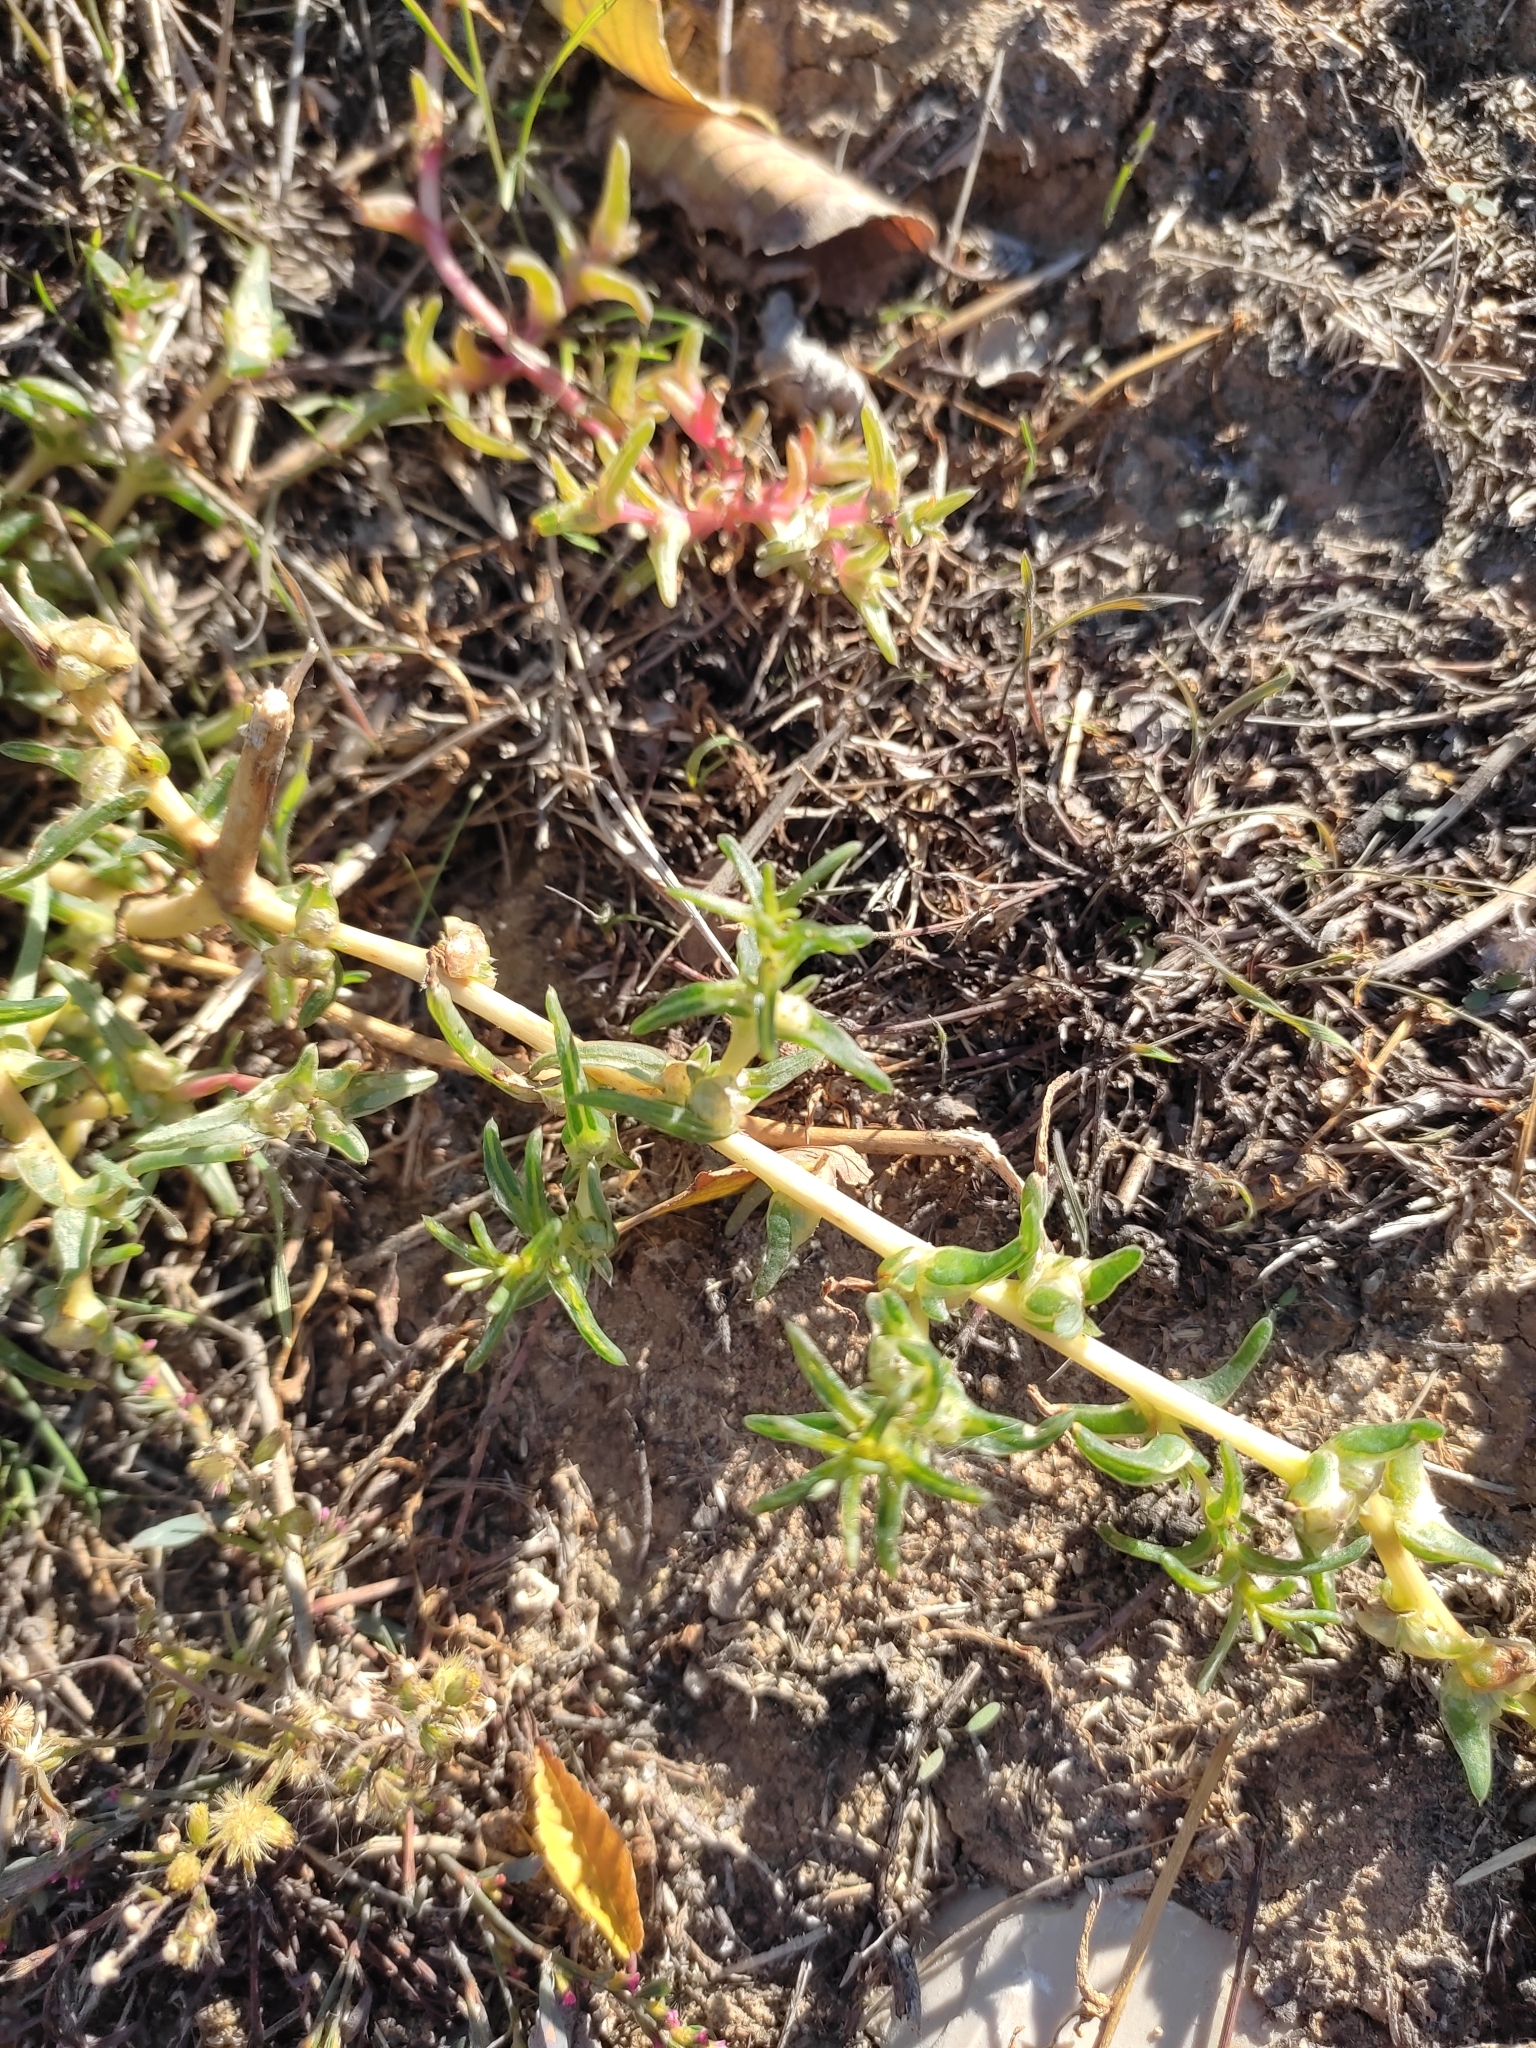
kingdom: Plantae
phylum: Tracheophyta
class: Magnoliopsida
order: Caryophyllales
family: Amaranthaceae
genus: Salsola
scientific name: Salsola soda
